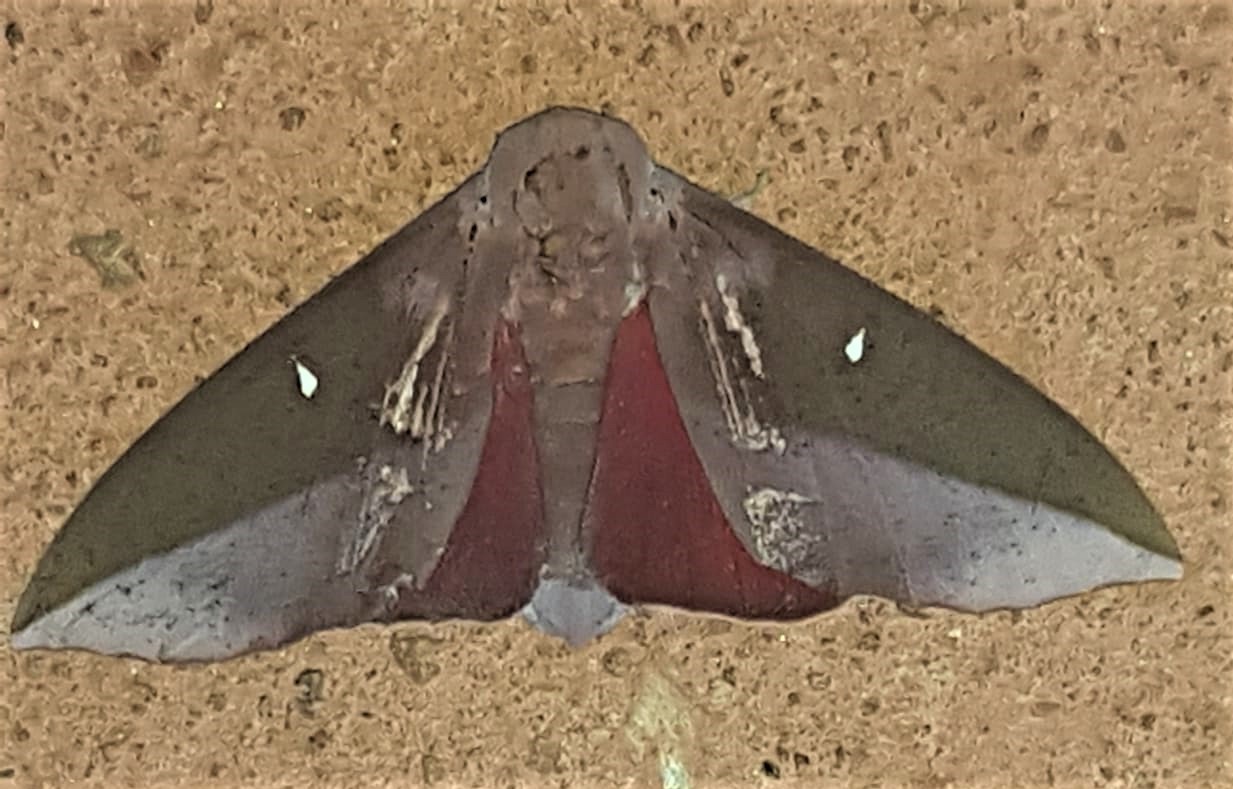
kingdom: Animalia
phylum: Arthropoda
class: Insecta
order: Lepidoptera
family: Saturniidae
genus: Othorene
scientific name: Othorene hodeva
